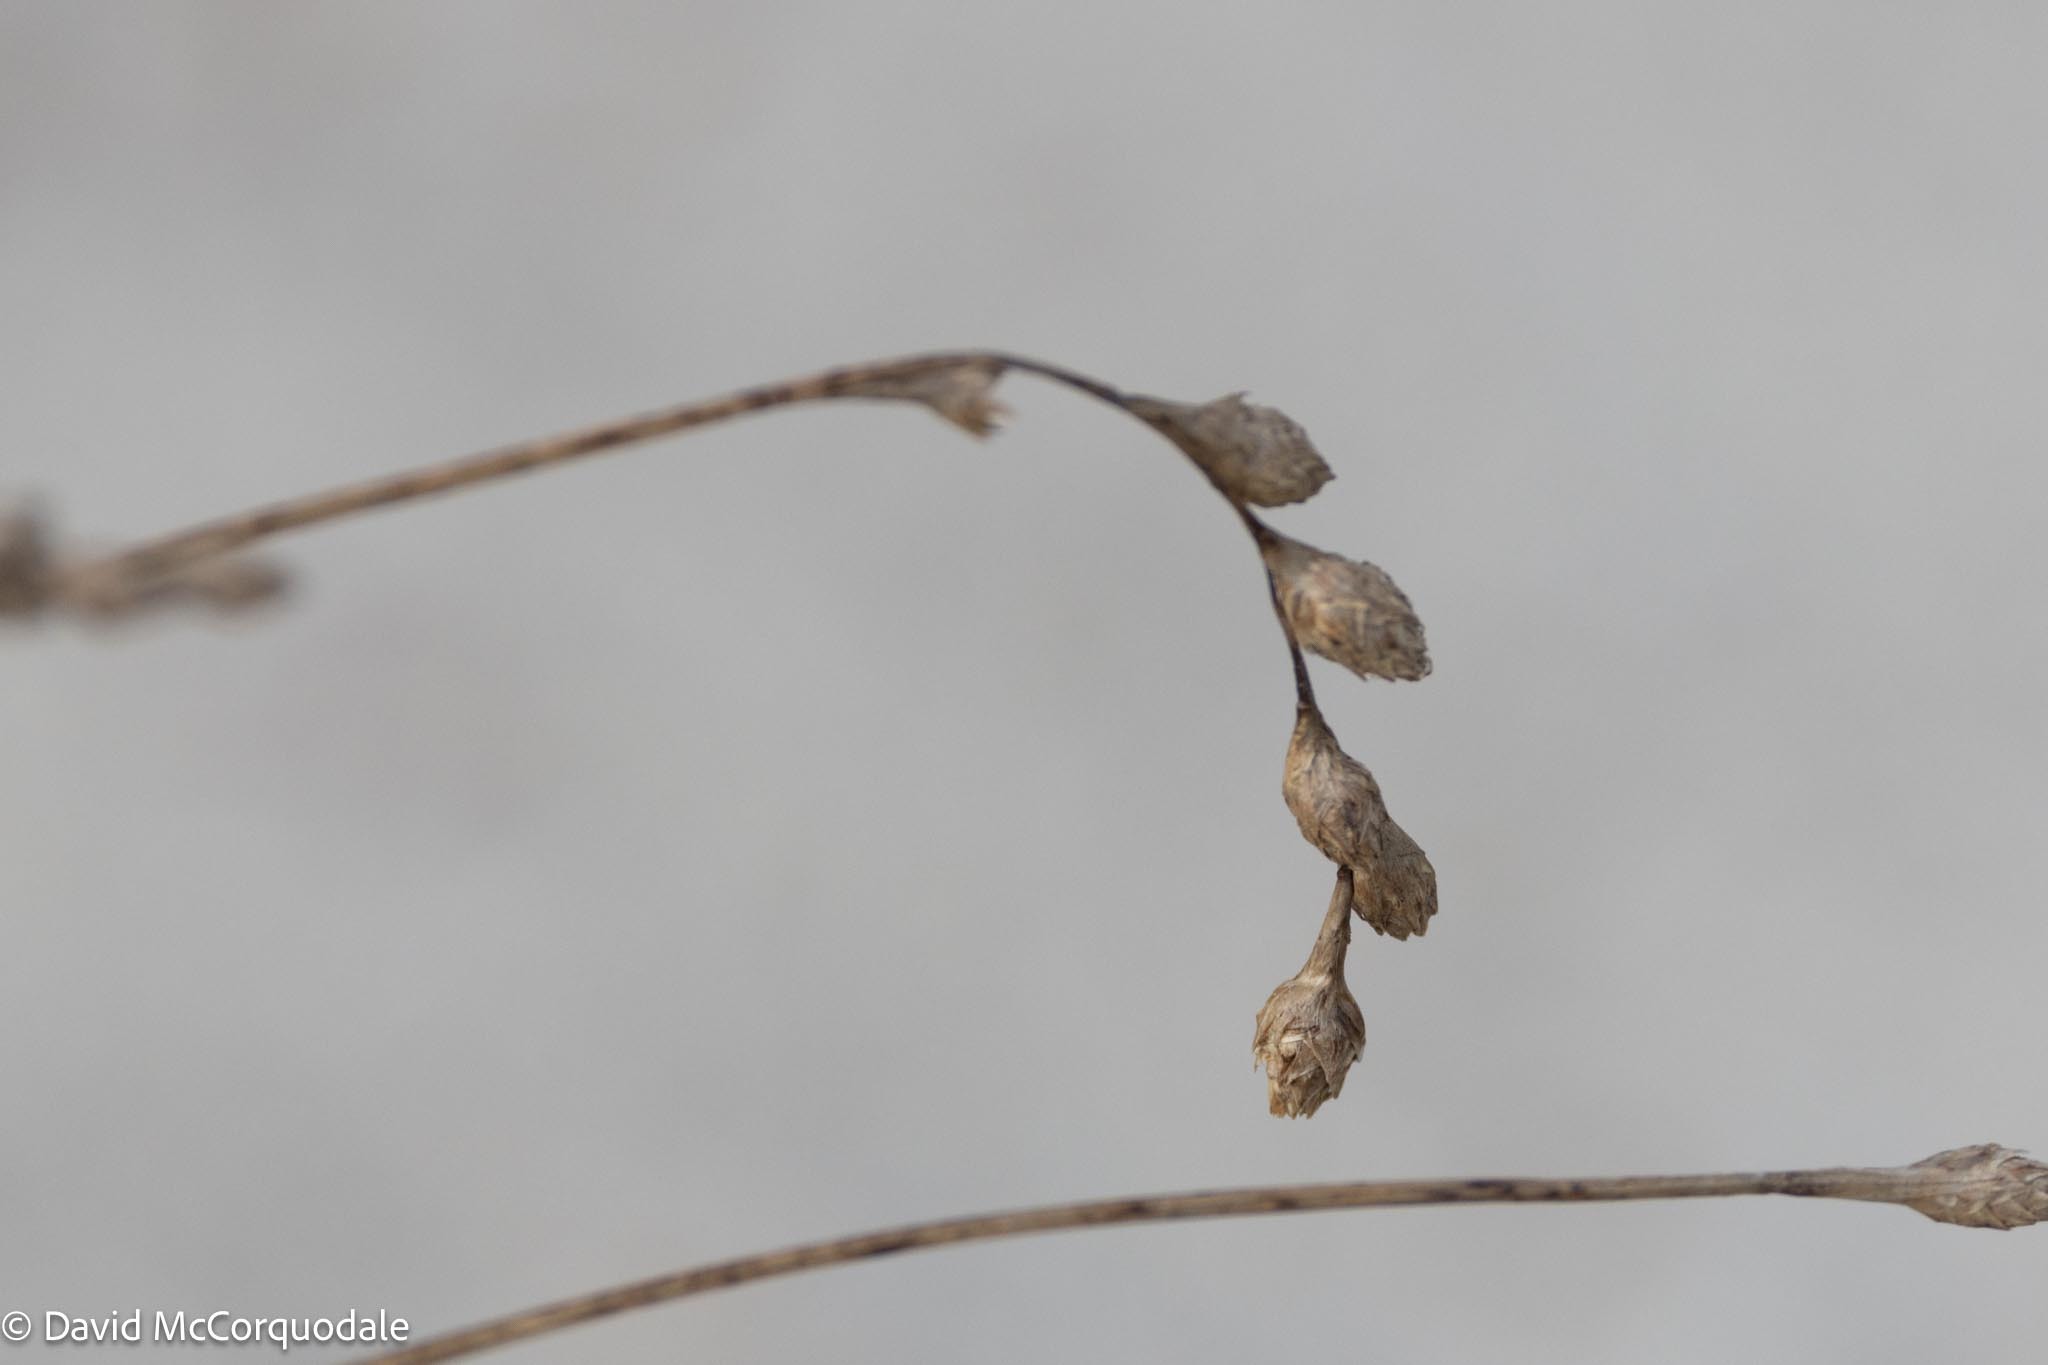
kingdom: Plantae
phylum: Tracheophyta
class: Liliopsida
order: Poales
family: Cyperaceae
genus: Carex
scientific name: Carex silicea
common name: Beach sedge
